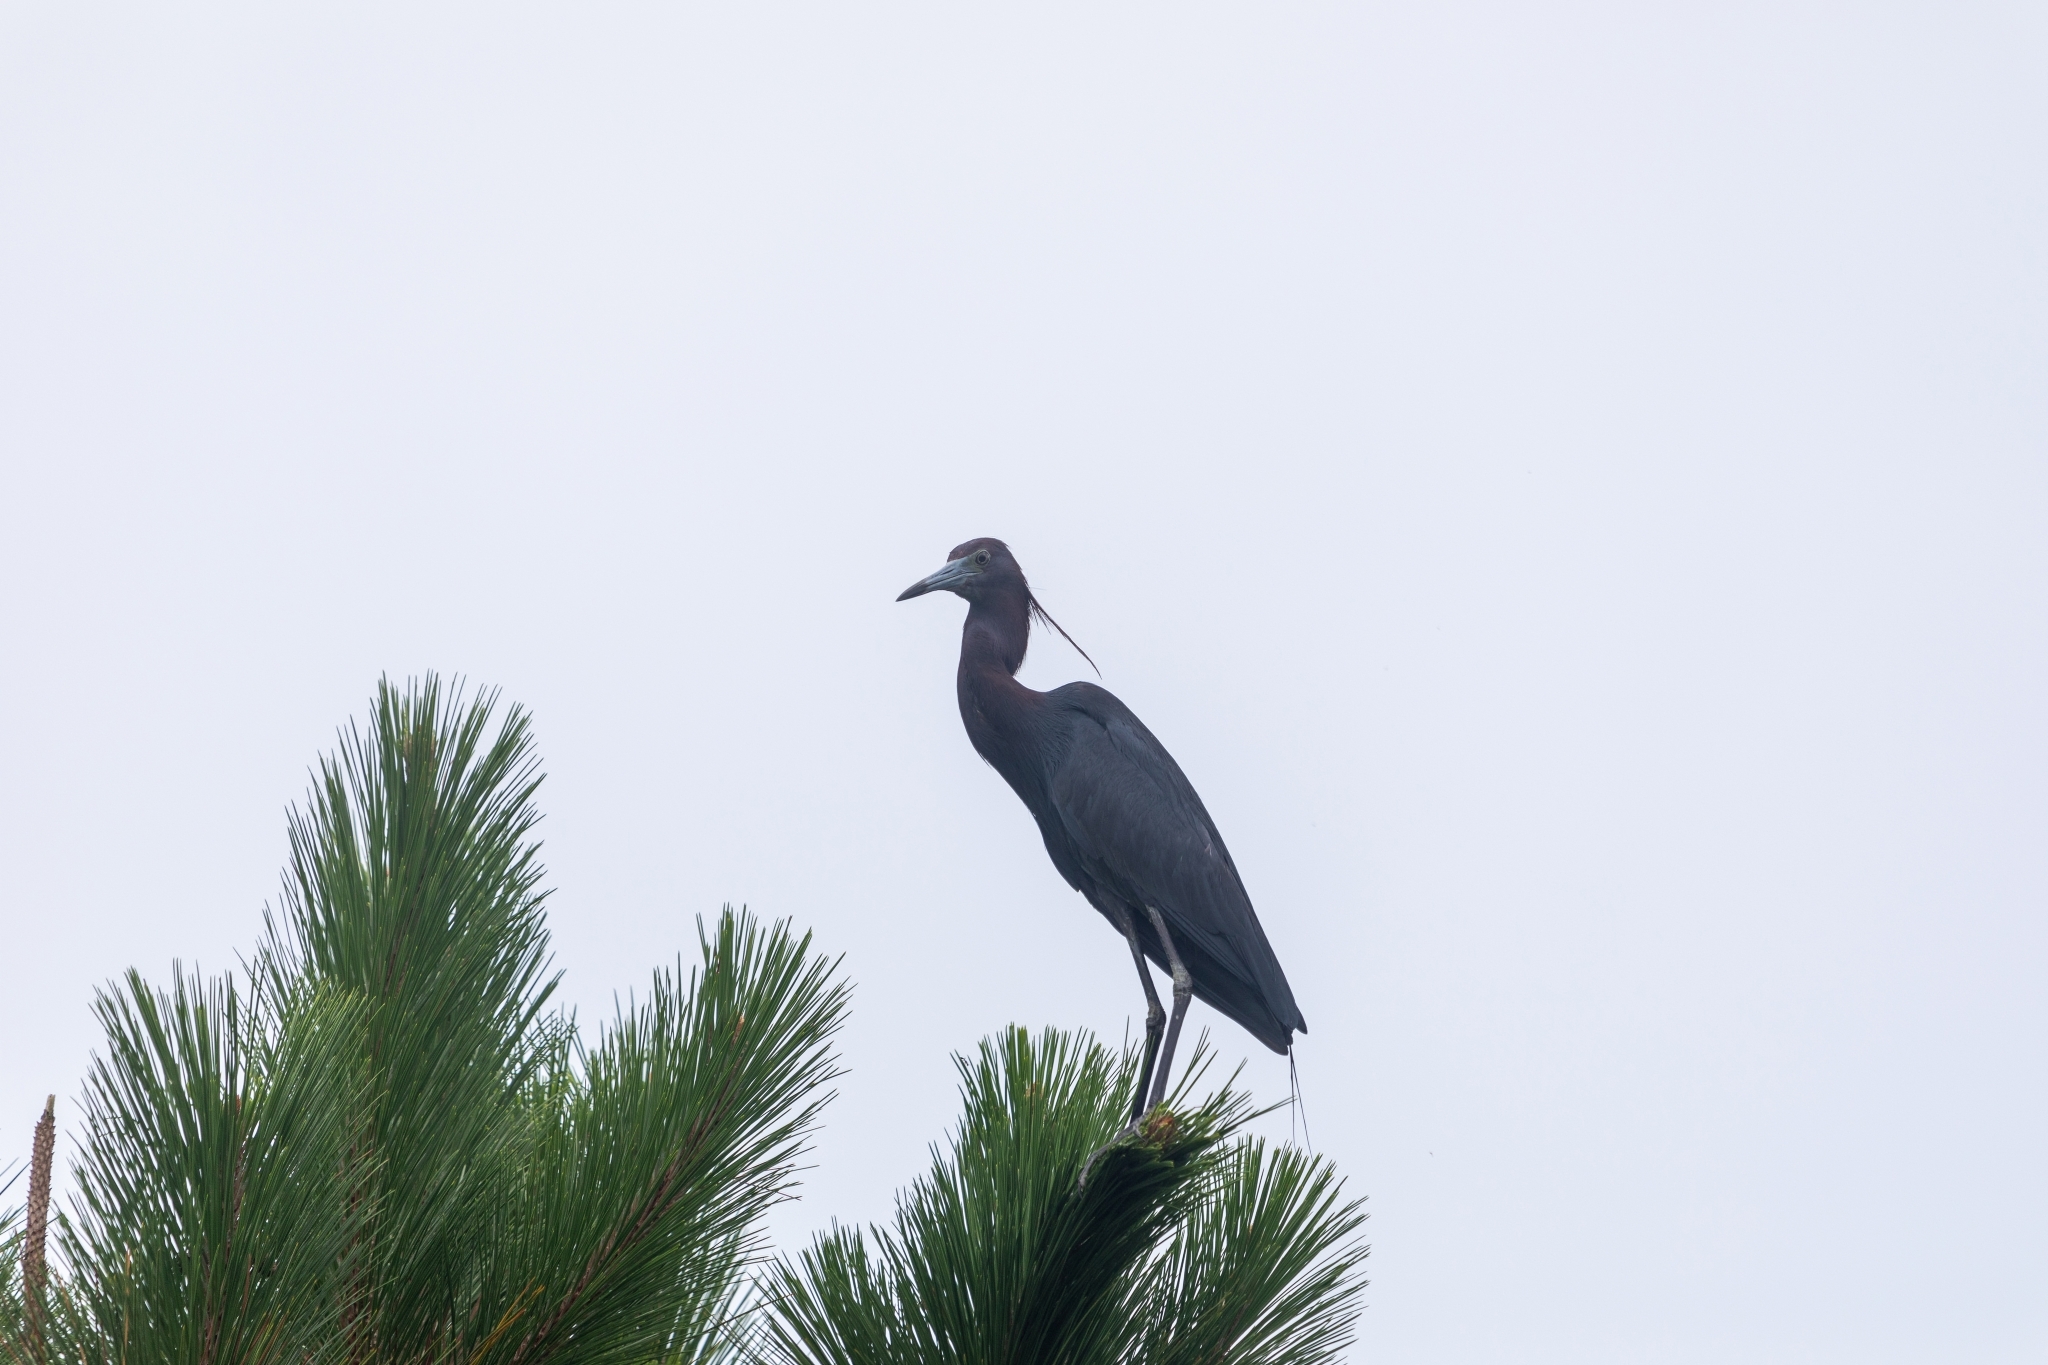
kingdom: Animalia
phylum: Chordata
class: Aves
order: Pelecaniformes
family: Ardeidae
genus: Egretta
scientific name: Egretta caerulea
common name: Little blue heron
